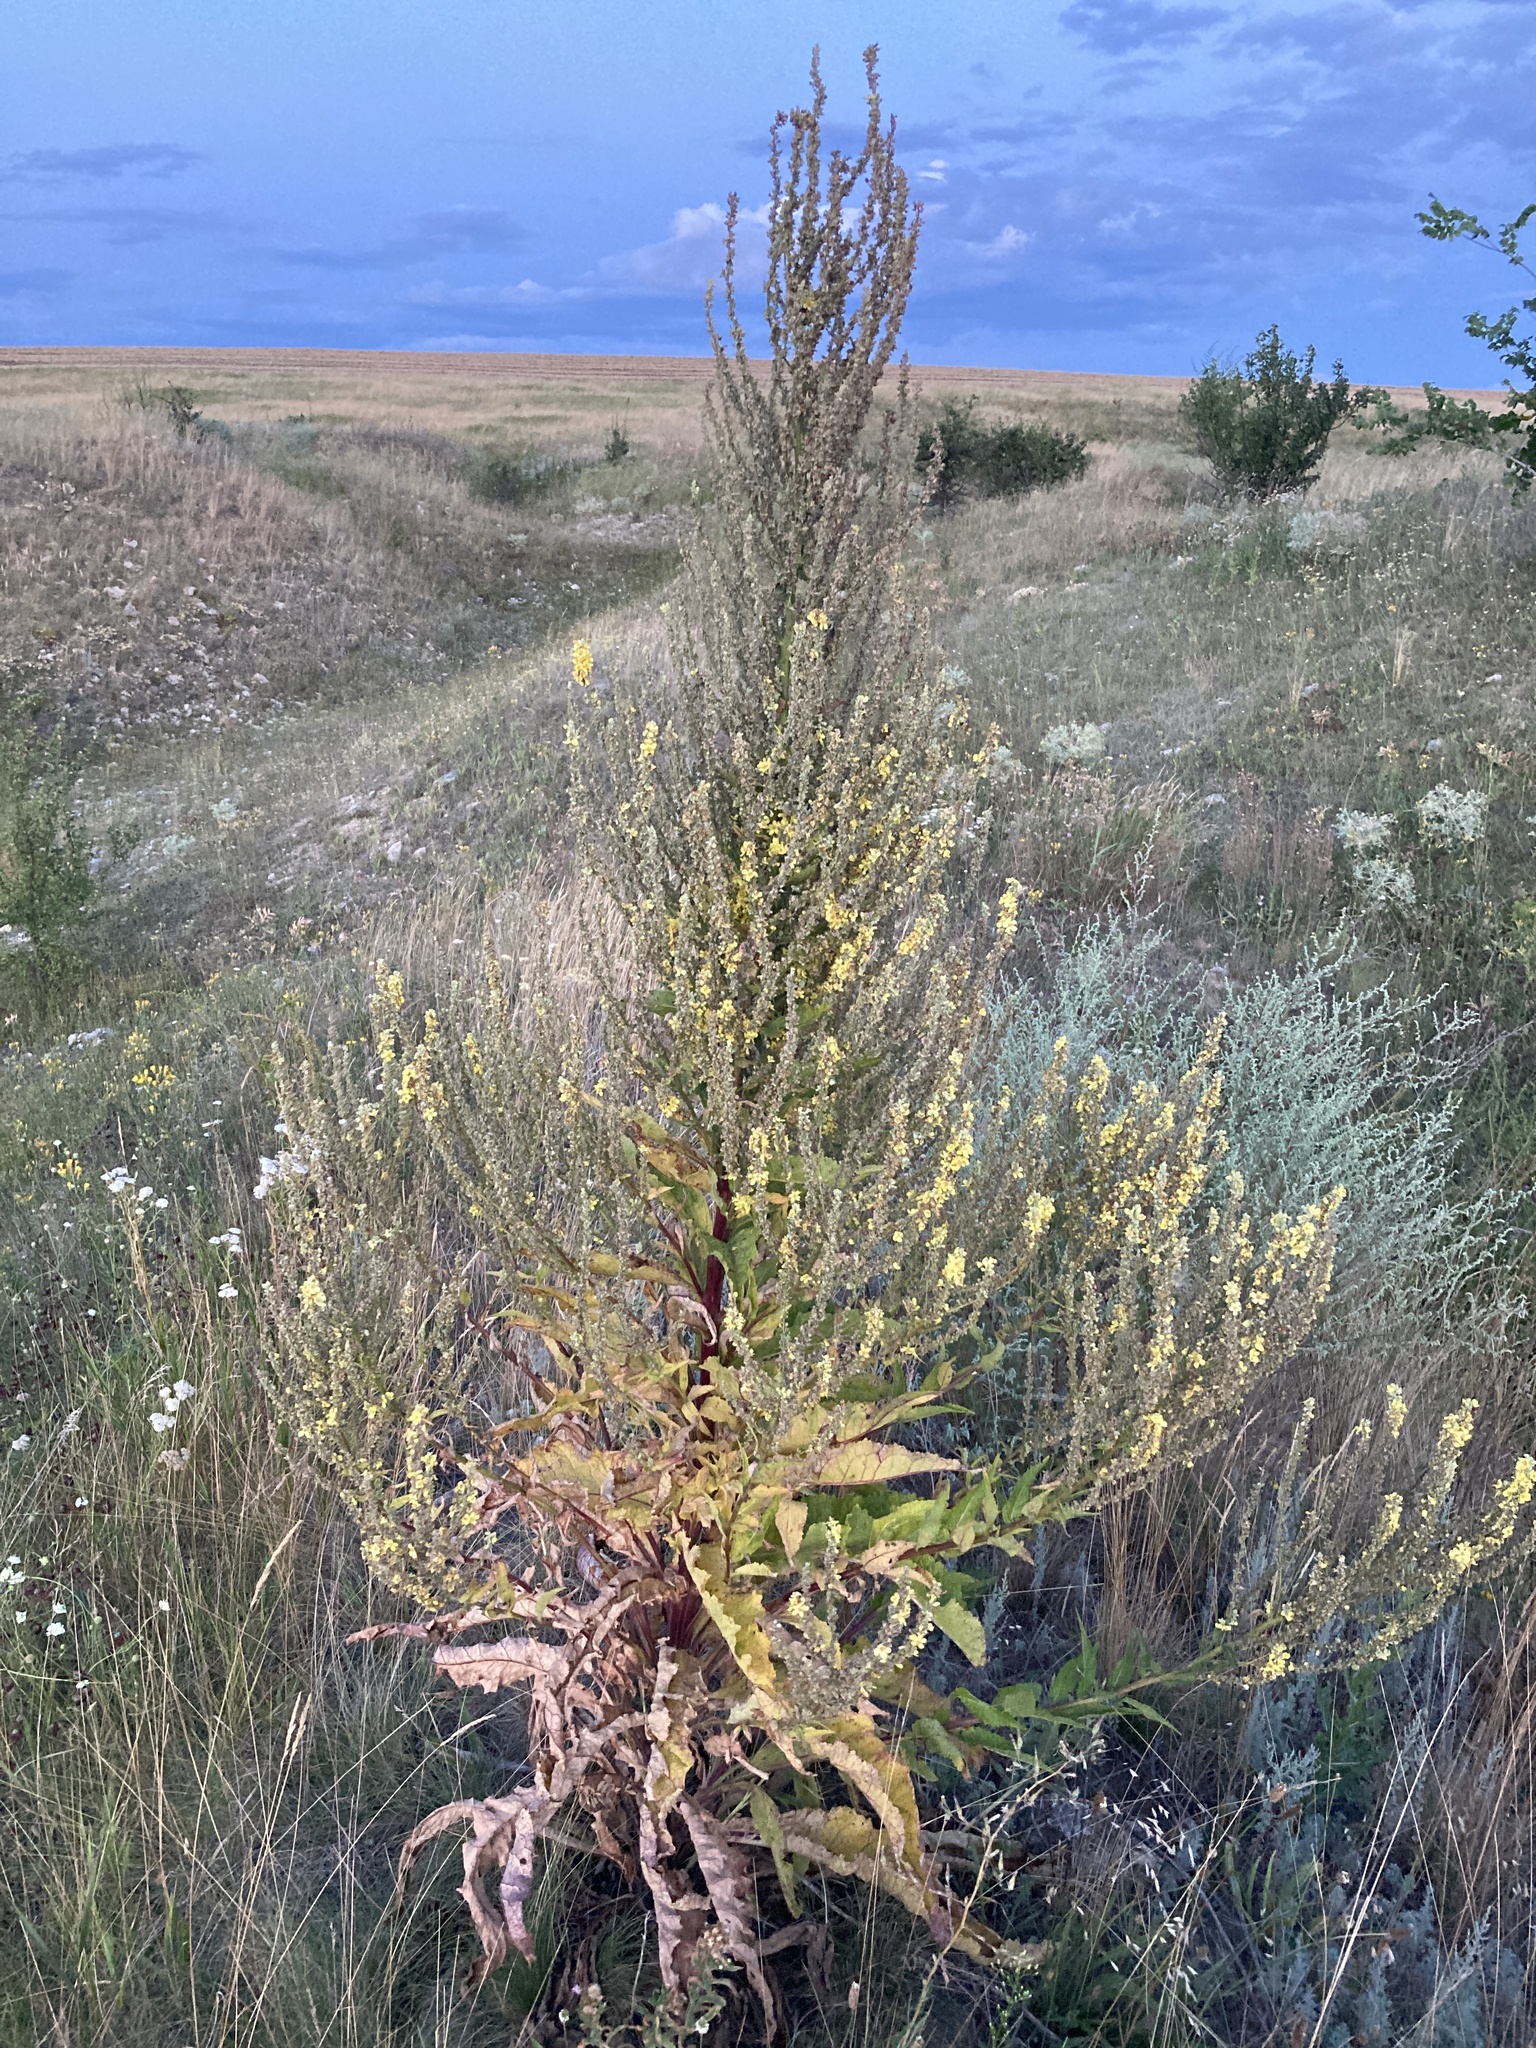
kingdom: Plantae
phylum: Tracheophyta
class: Magnoliopsida
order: Lamiales
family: Scrophulariaceae
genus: Verbascum
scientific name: Verbascum lychnitis
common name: White mullein
